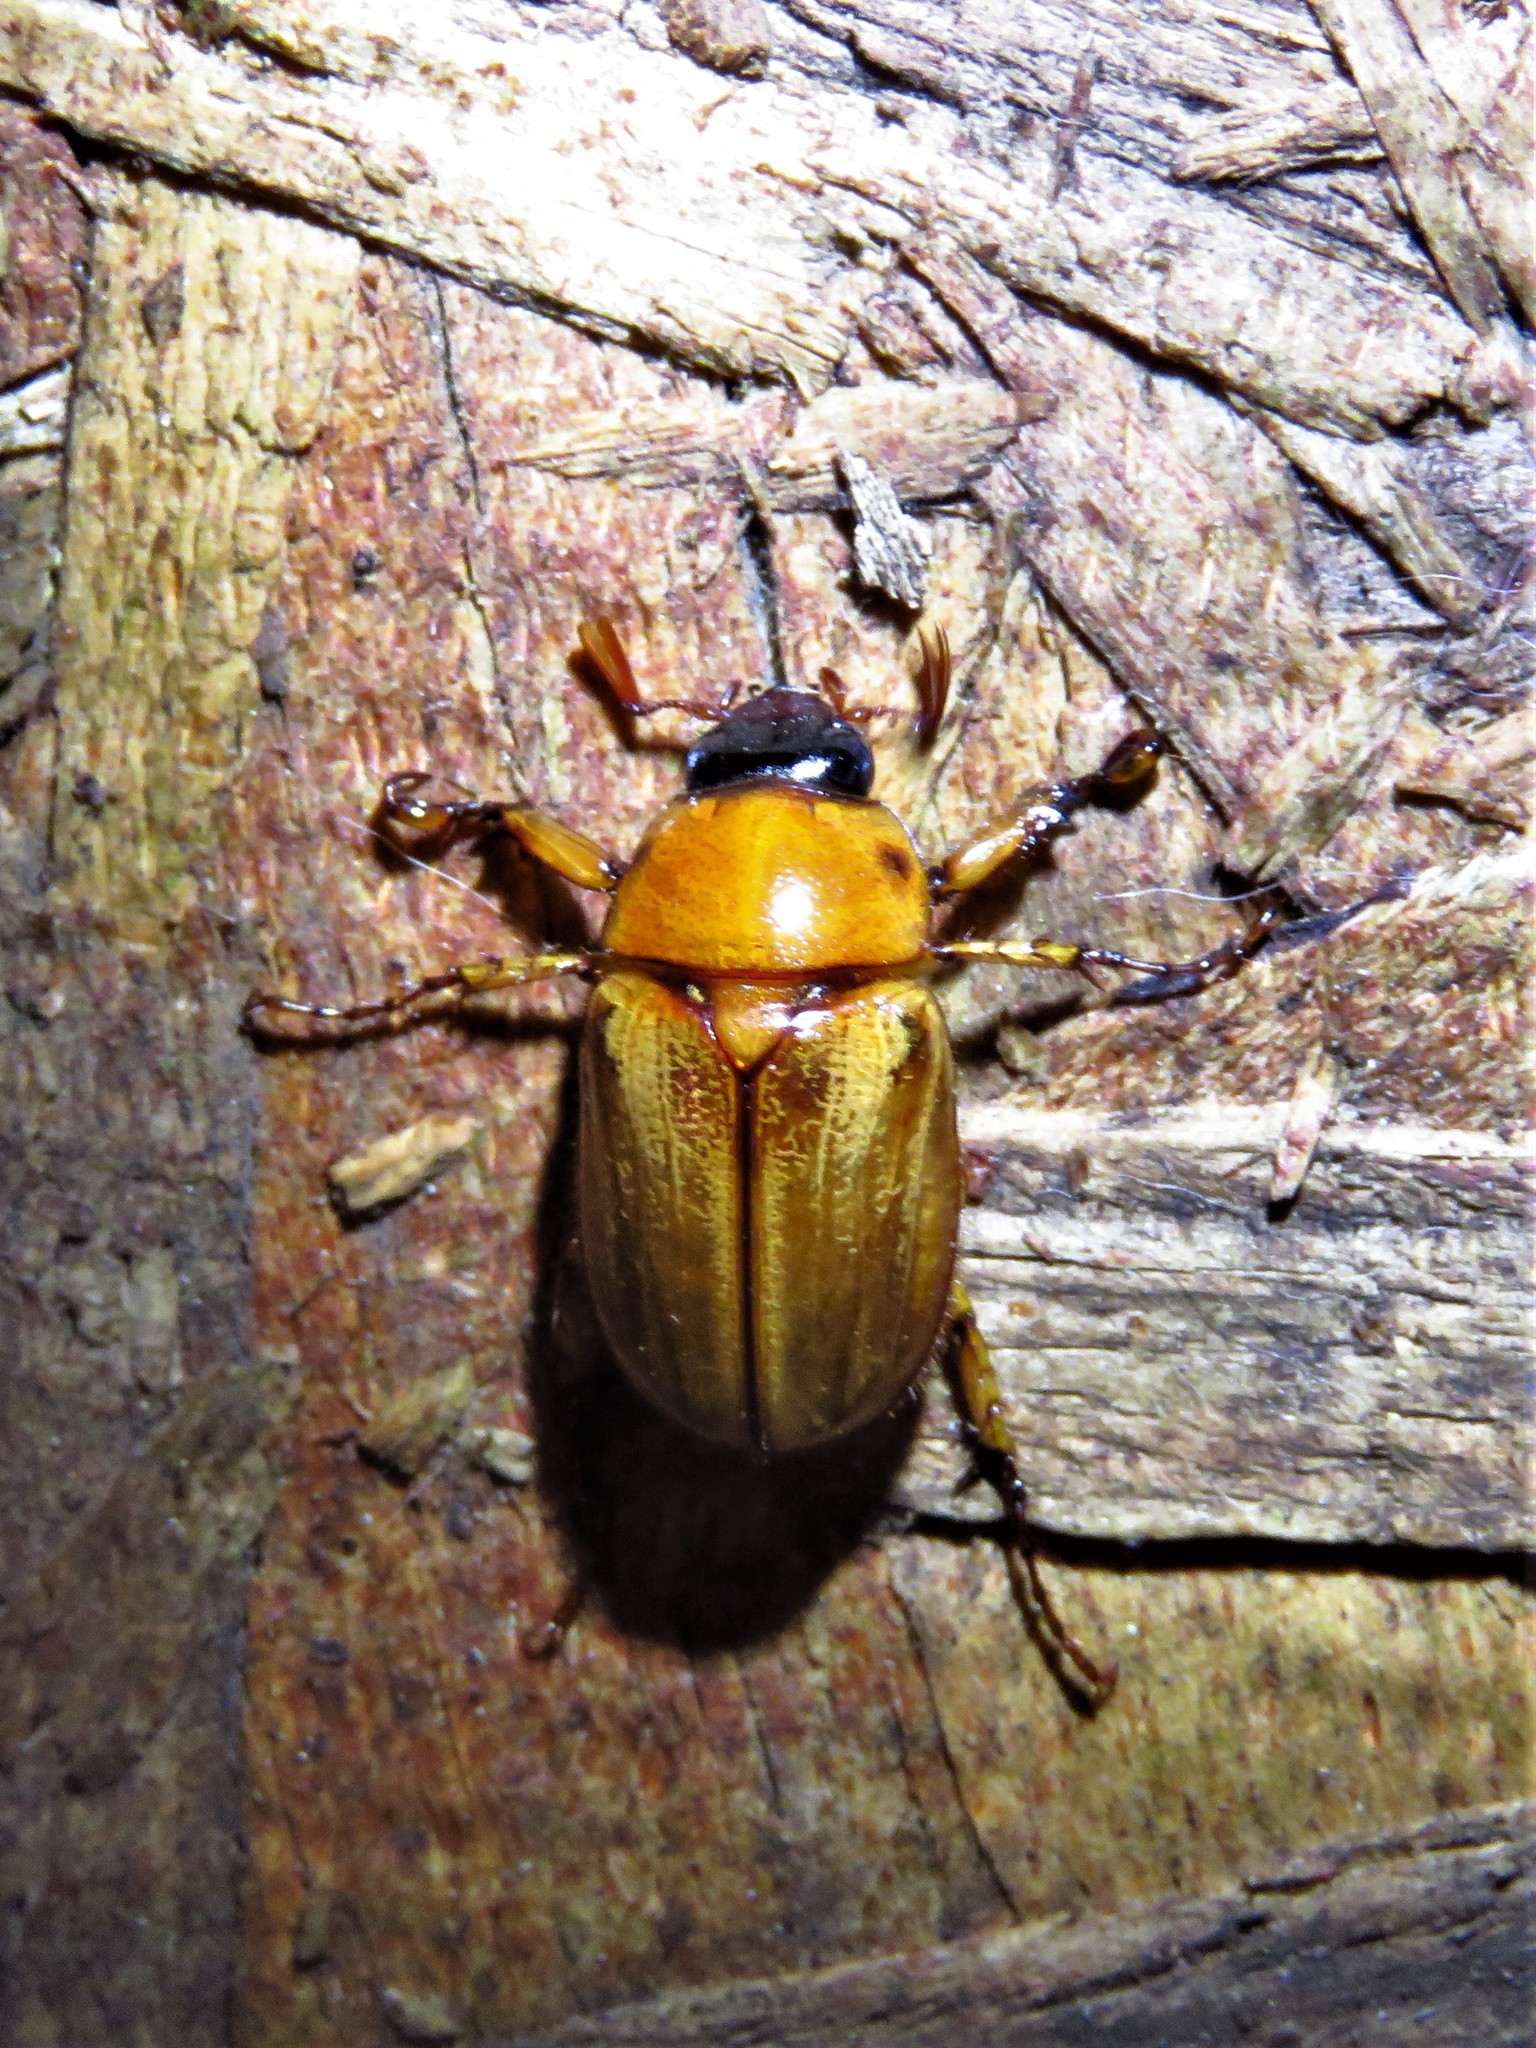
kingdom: Animalia
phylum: Arthropoda
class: Insecta
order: Coleoptera
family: Scarabaeidae
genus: Cyclocephala
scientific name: Cyclocephala lurida
